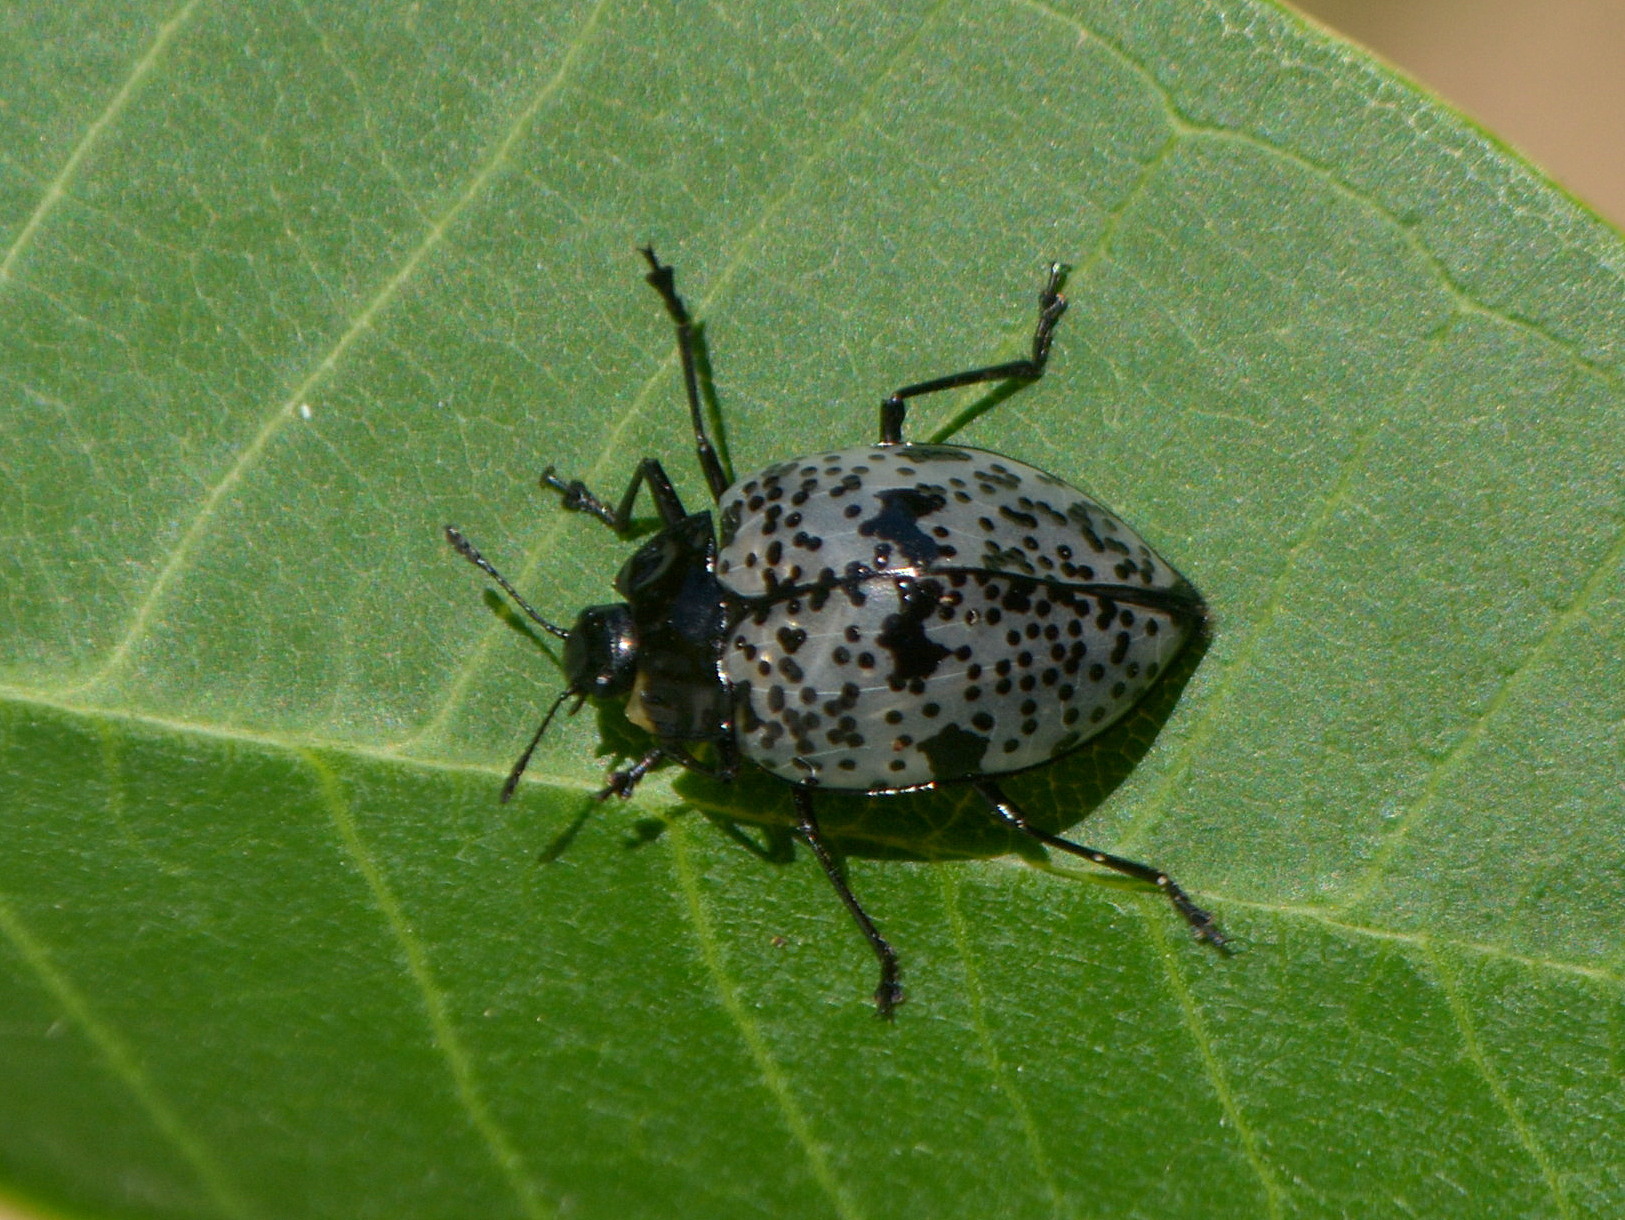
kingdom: Animalia
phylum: Arthropoda
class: Insecta
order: Coleoptera
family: Erotylidae
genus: Gibbifer
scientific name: Gibbifer
